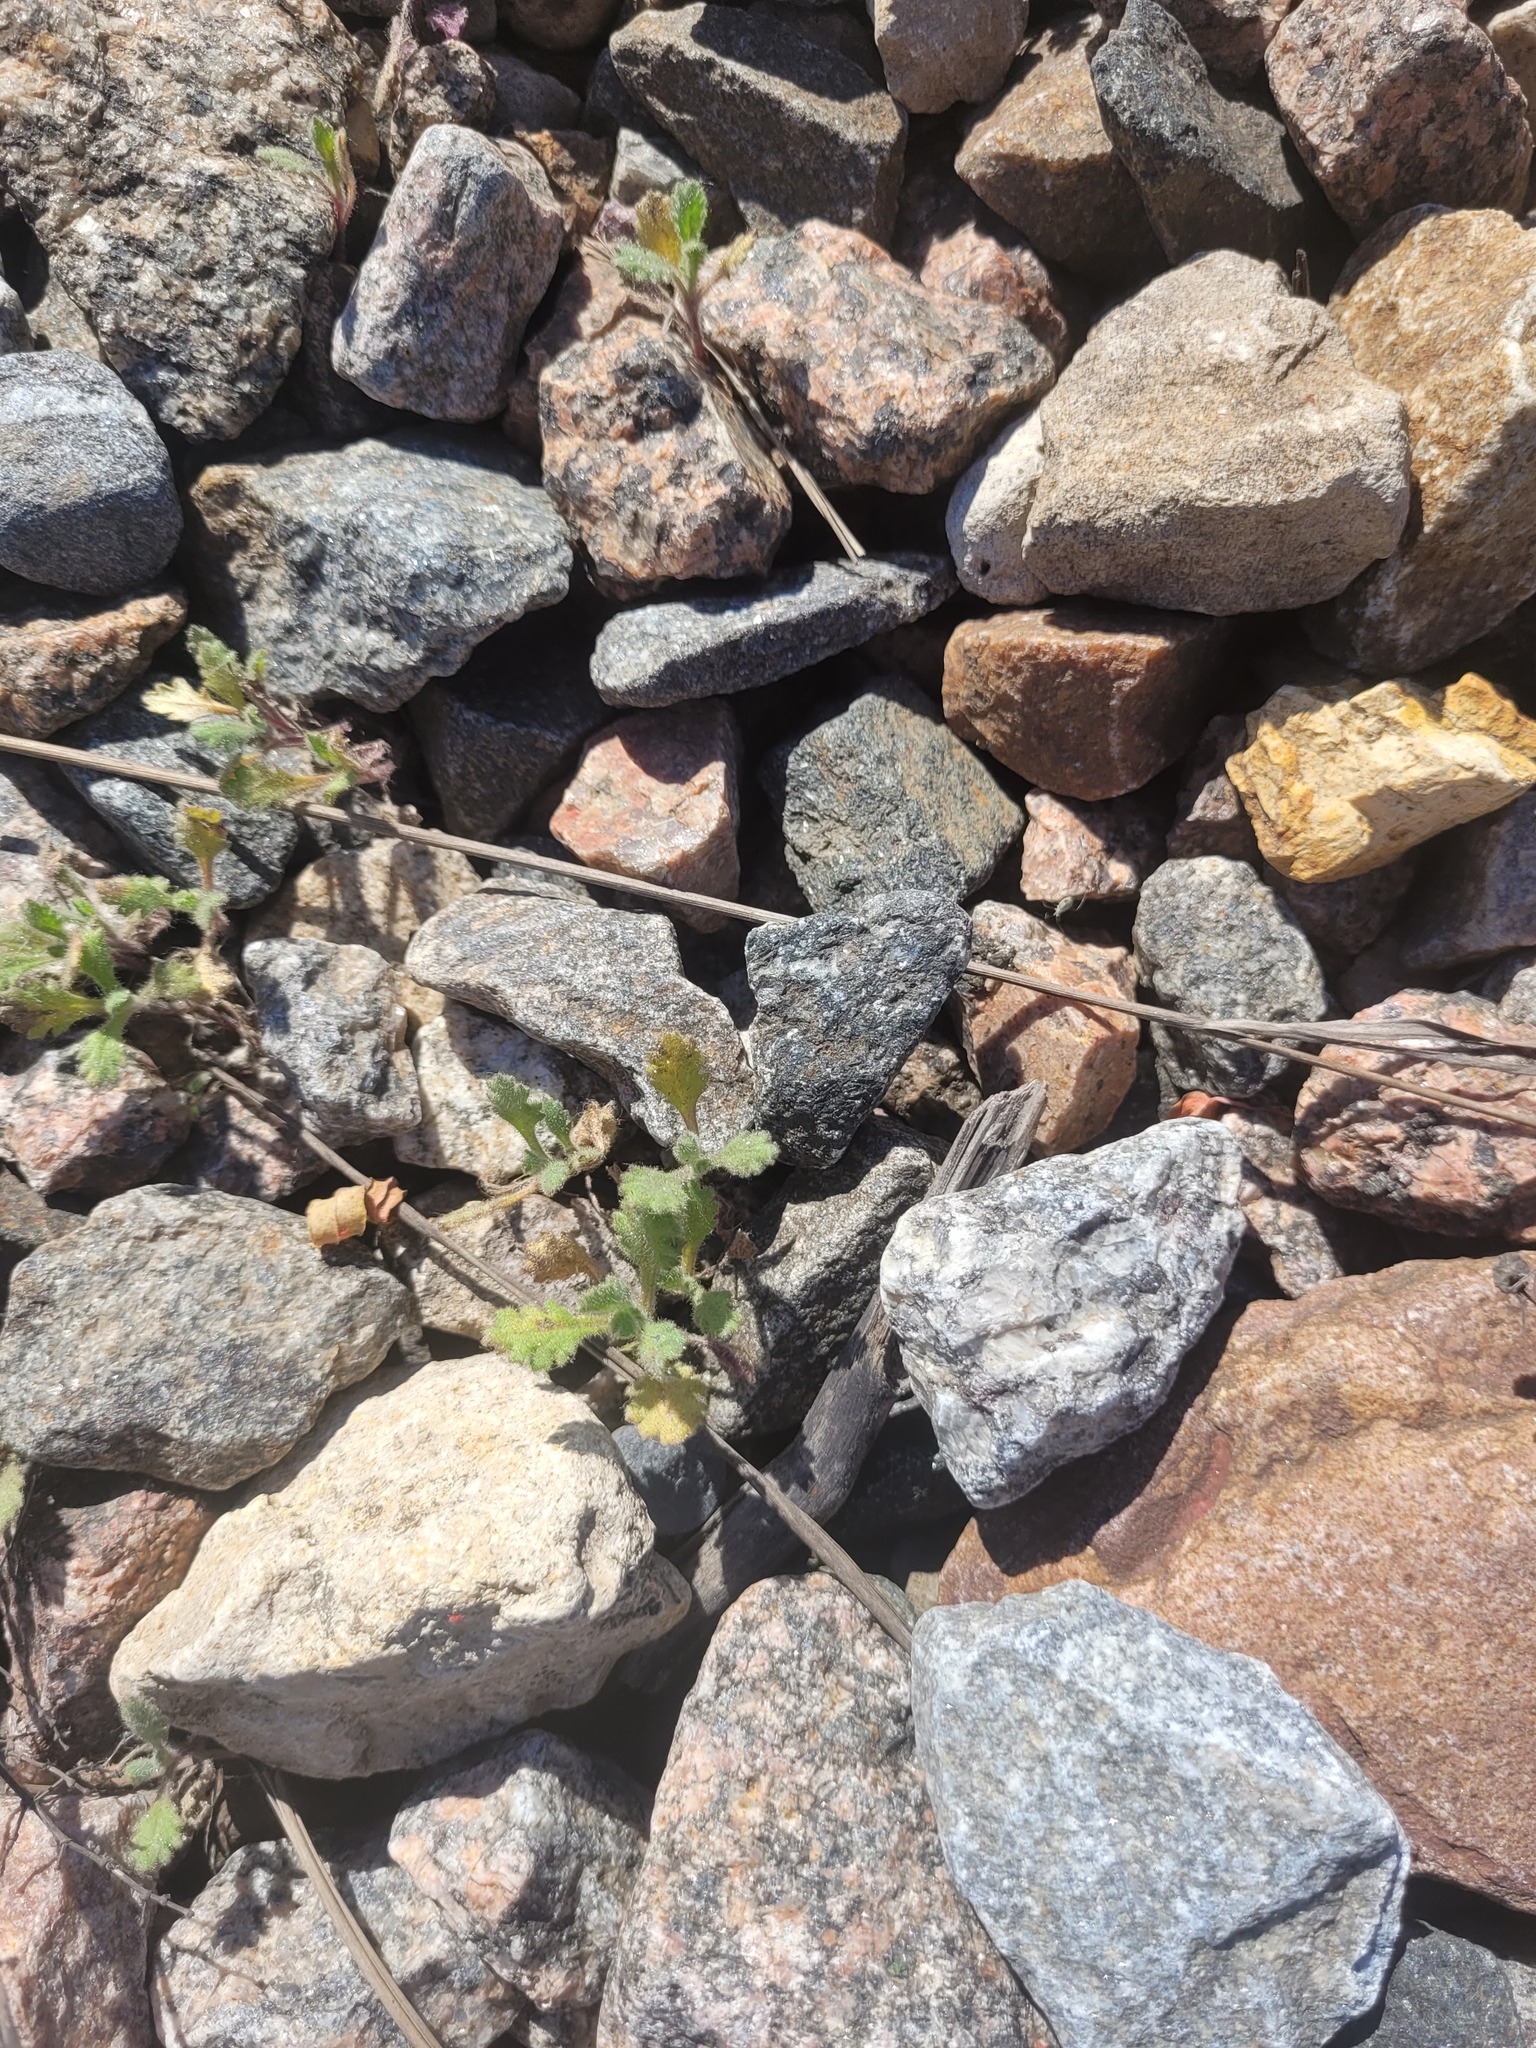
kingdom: Plantae
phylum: Tracheophyta
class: Magnoliopsida
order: Asterales
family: Asteraceae
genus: Senecio
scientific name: Senecio viscosus
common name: Sticky groundsel
